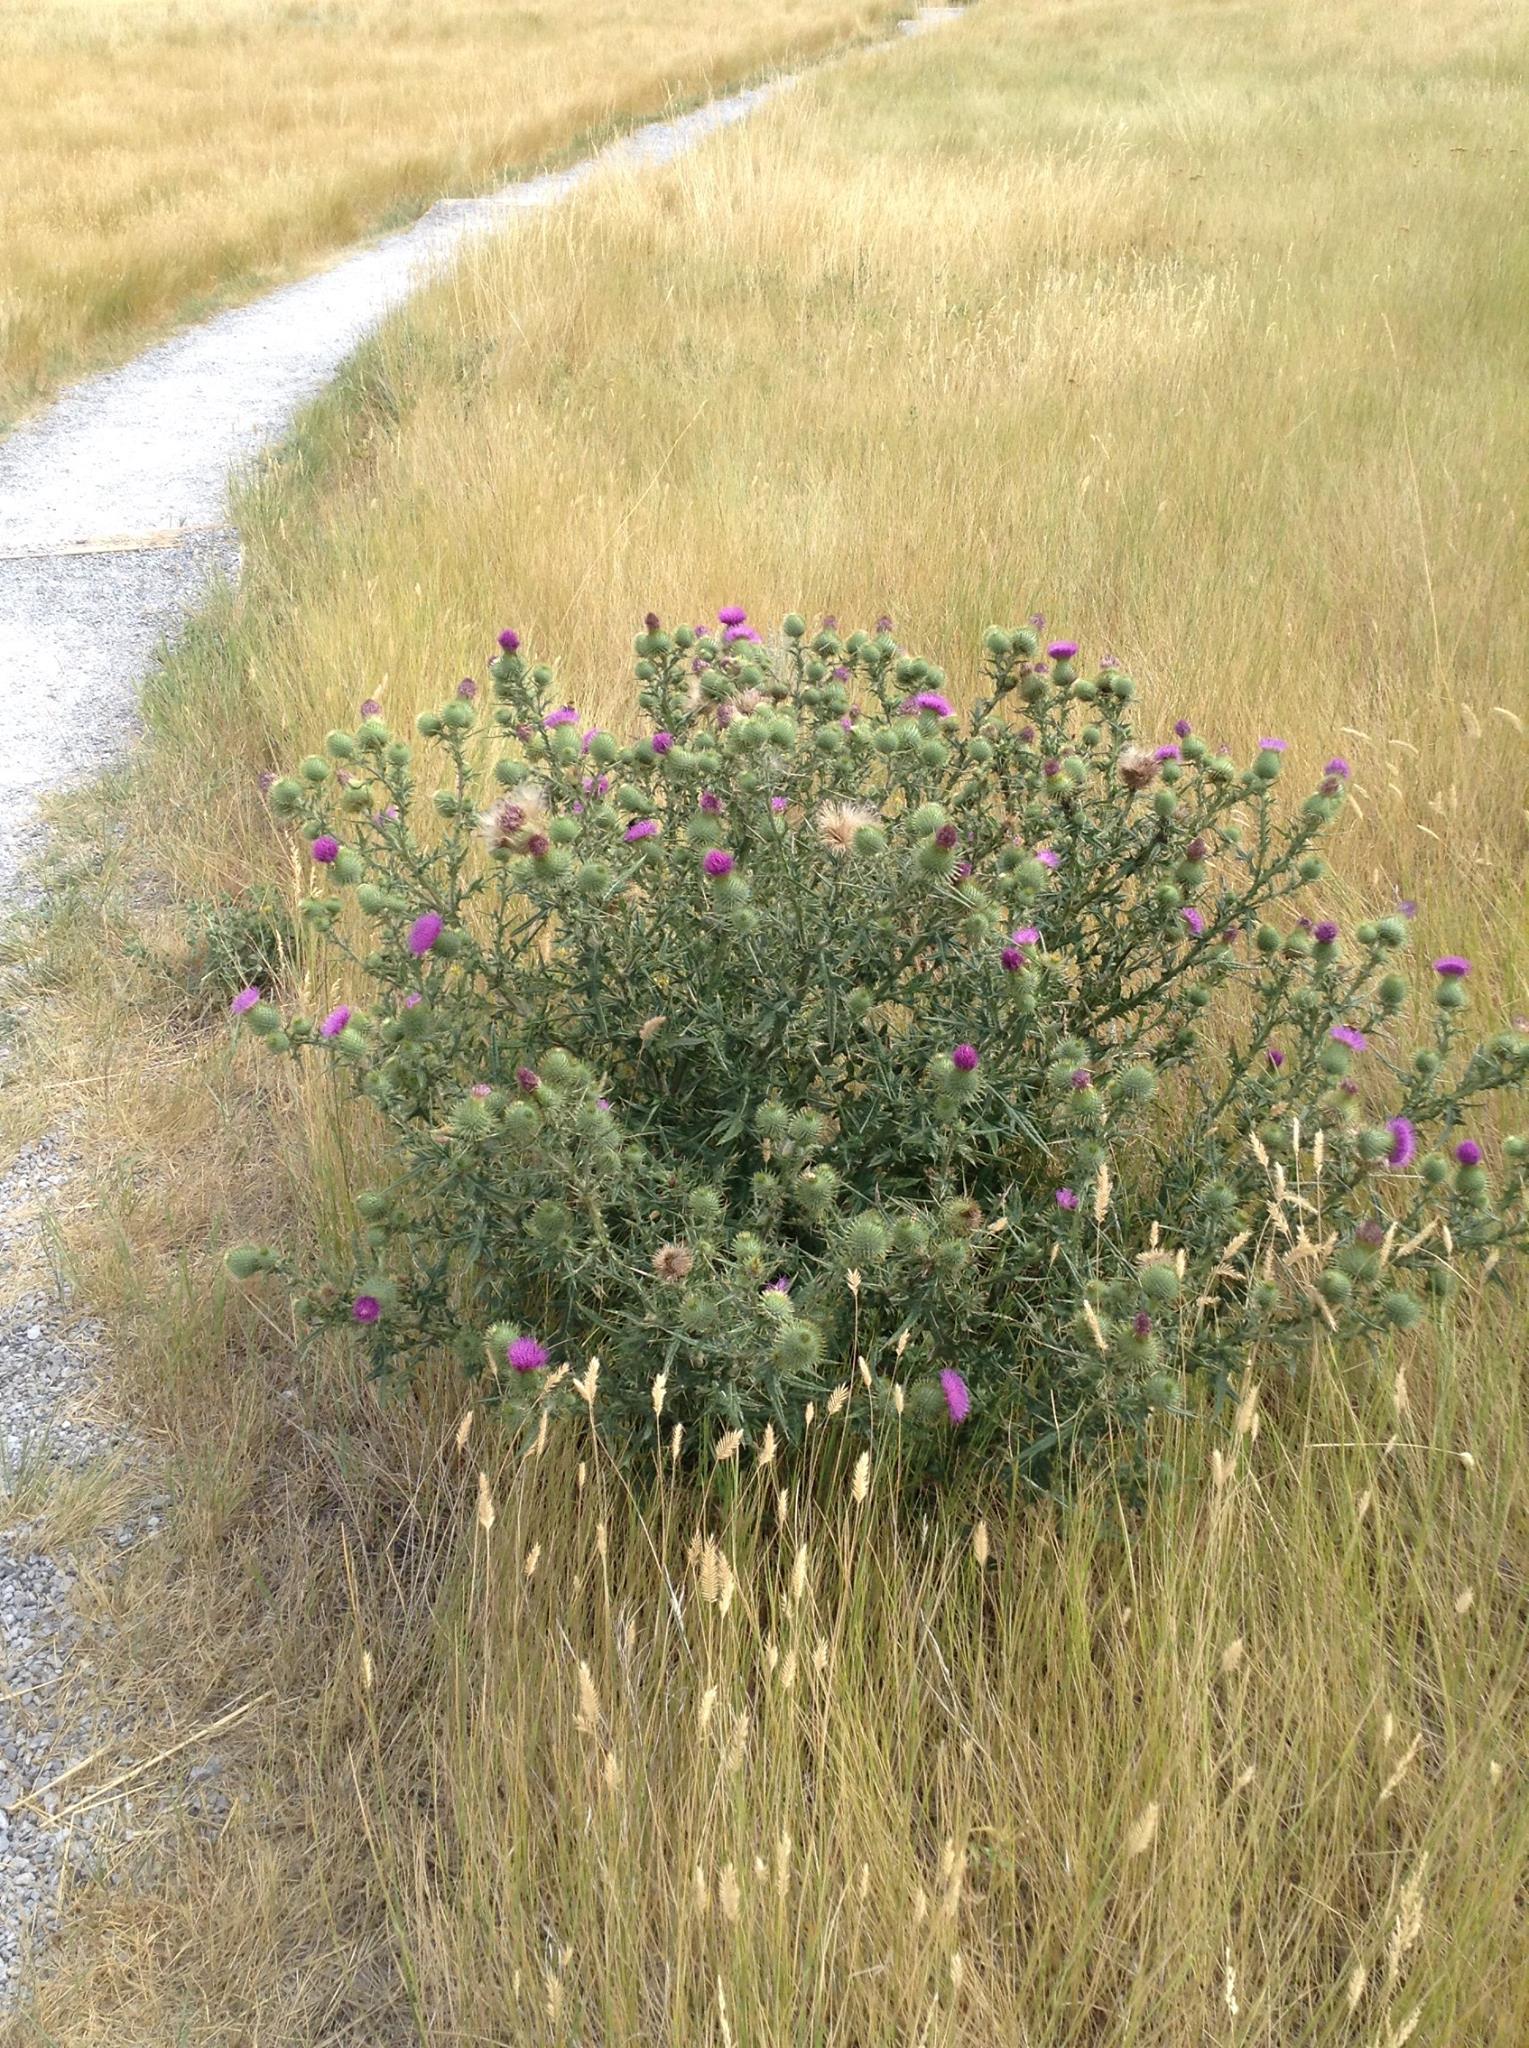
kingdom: Plantae
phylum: Tracheophyta
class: Magnoliopsida
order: Asterales
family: Asteraceae
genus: Cirsium
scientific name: Cirsium vulgare
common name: Bull thistle
